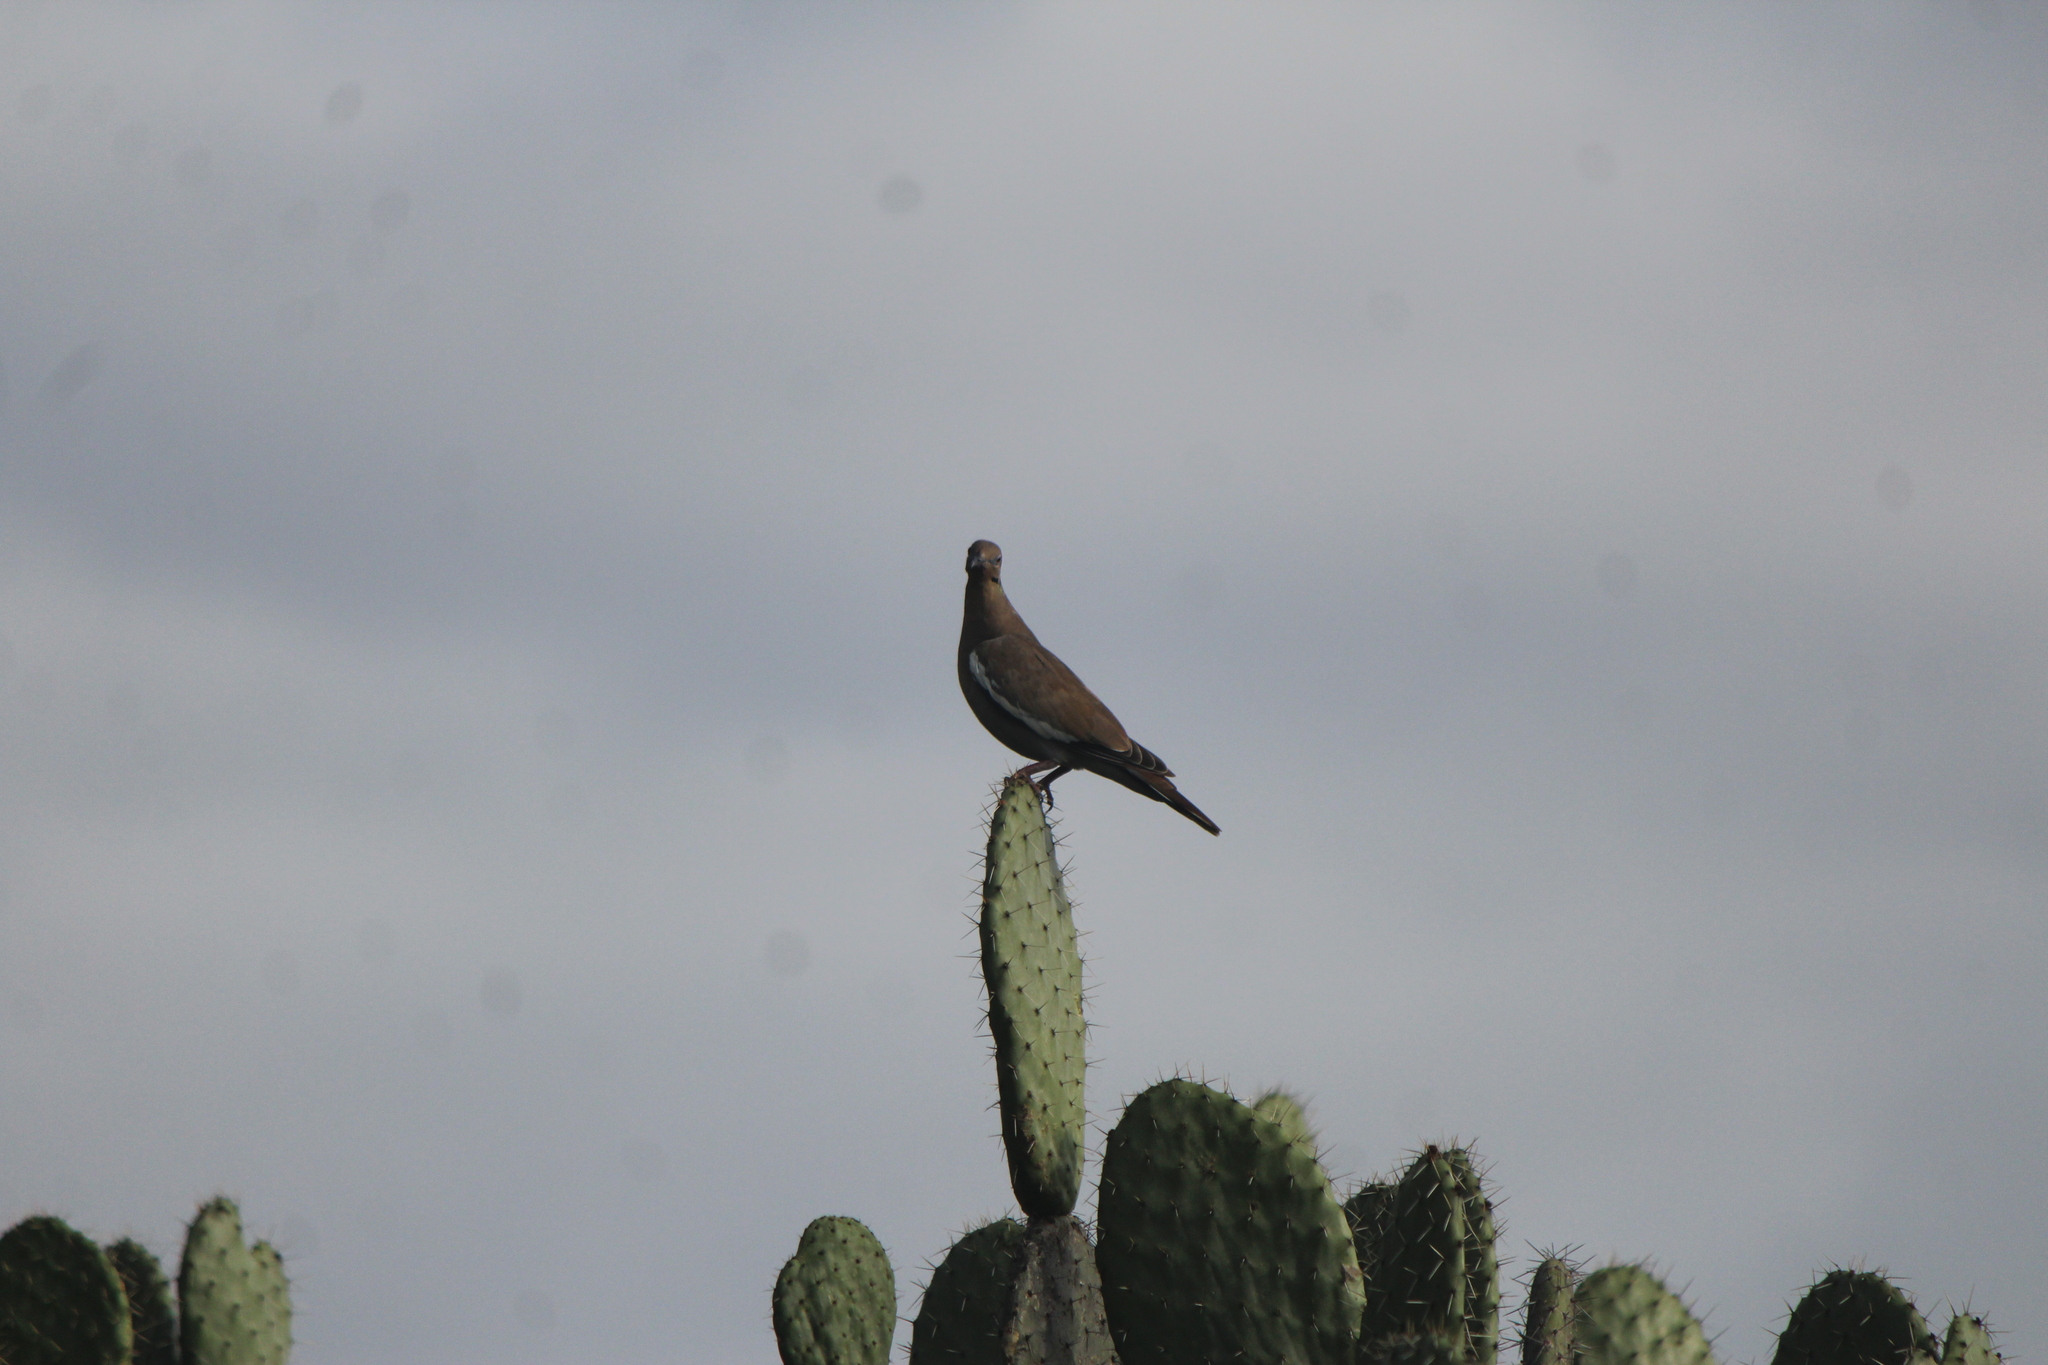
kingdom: Animalia
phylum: Chordata
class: Aves
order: Columbiformes
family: Columbidae
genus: Zenaida
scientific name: Zenaida asiatica
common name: White-winged dove
